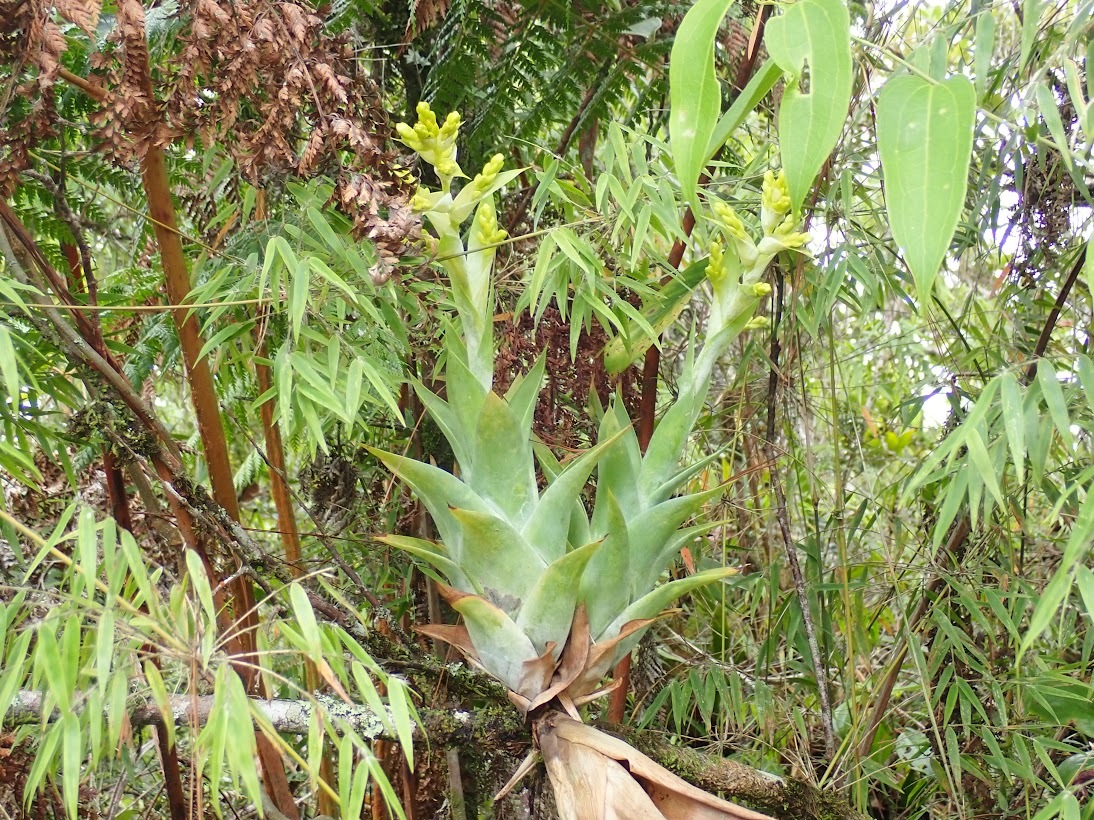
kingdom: Plantae
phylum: Tracheophyta
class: Liliopsida
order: Poales
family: Bromeliaceae
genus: Catopsis
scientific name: Catopsis oerstediana
